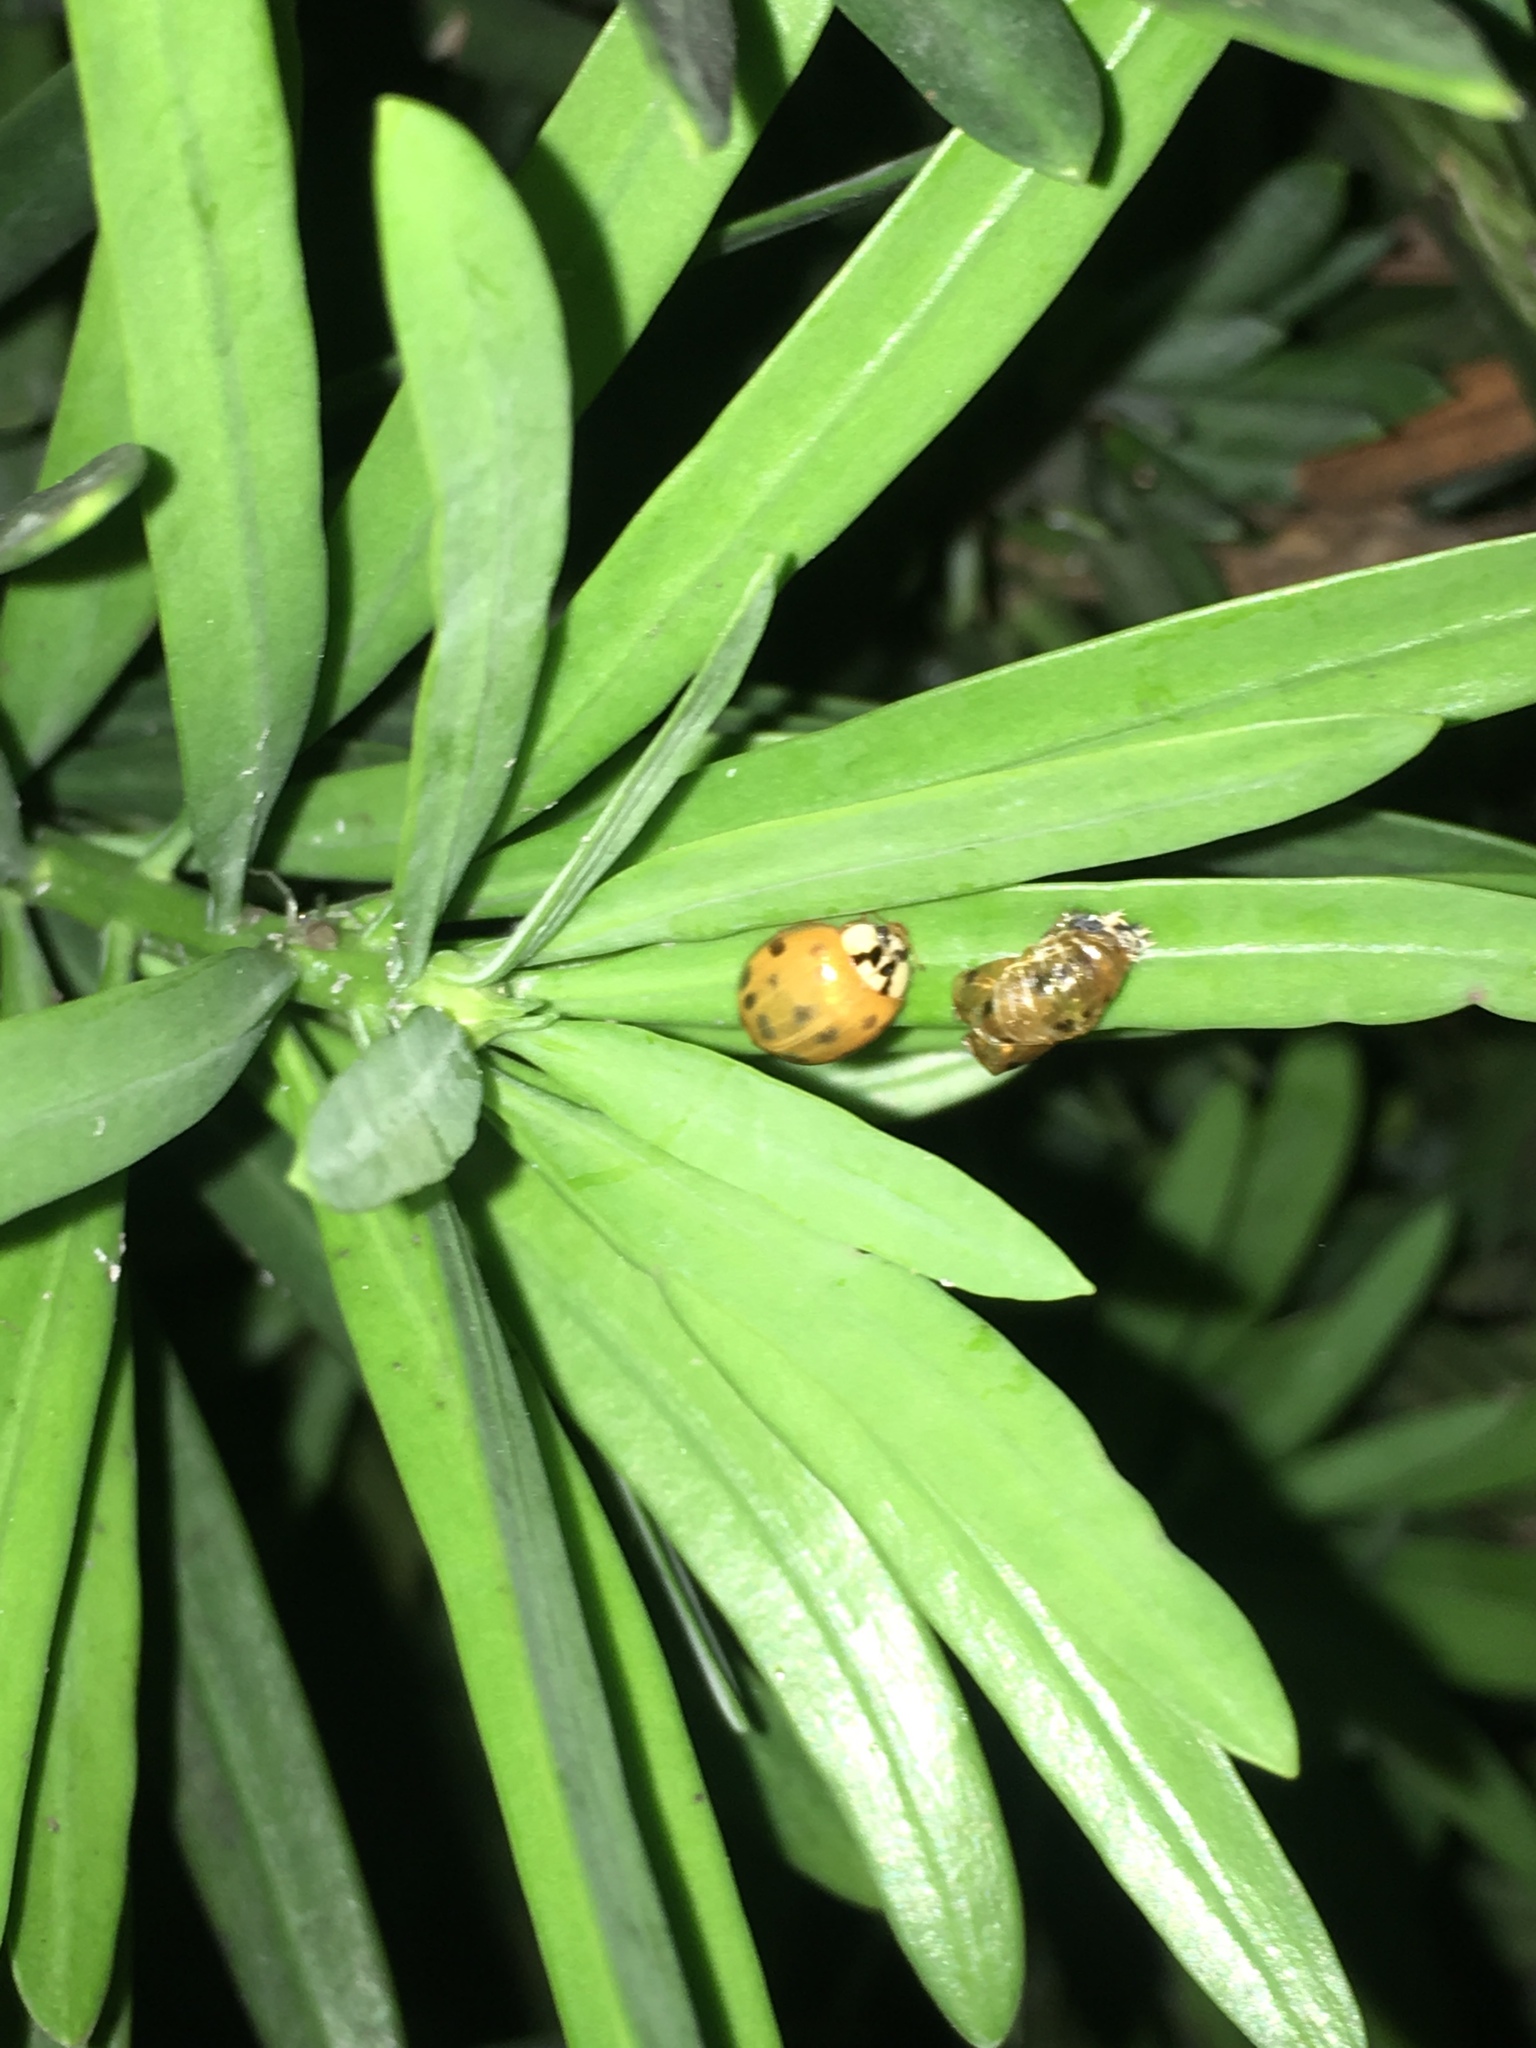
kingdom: Animalia
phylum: Arthropoda
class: Insecta
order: Coleoptera
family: Coccinellidae
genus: Harmonia
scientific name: Harmonia axyridis
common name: Harlequin ladybird
